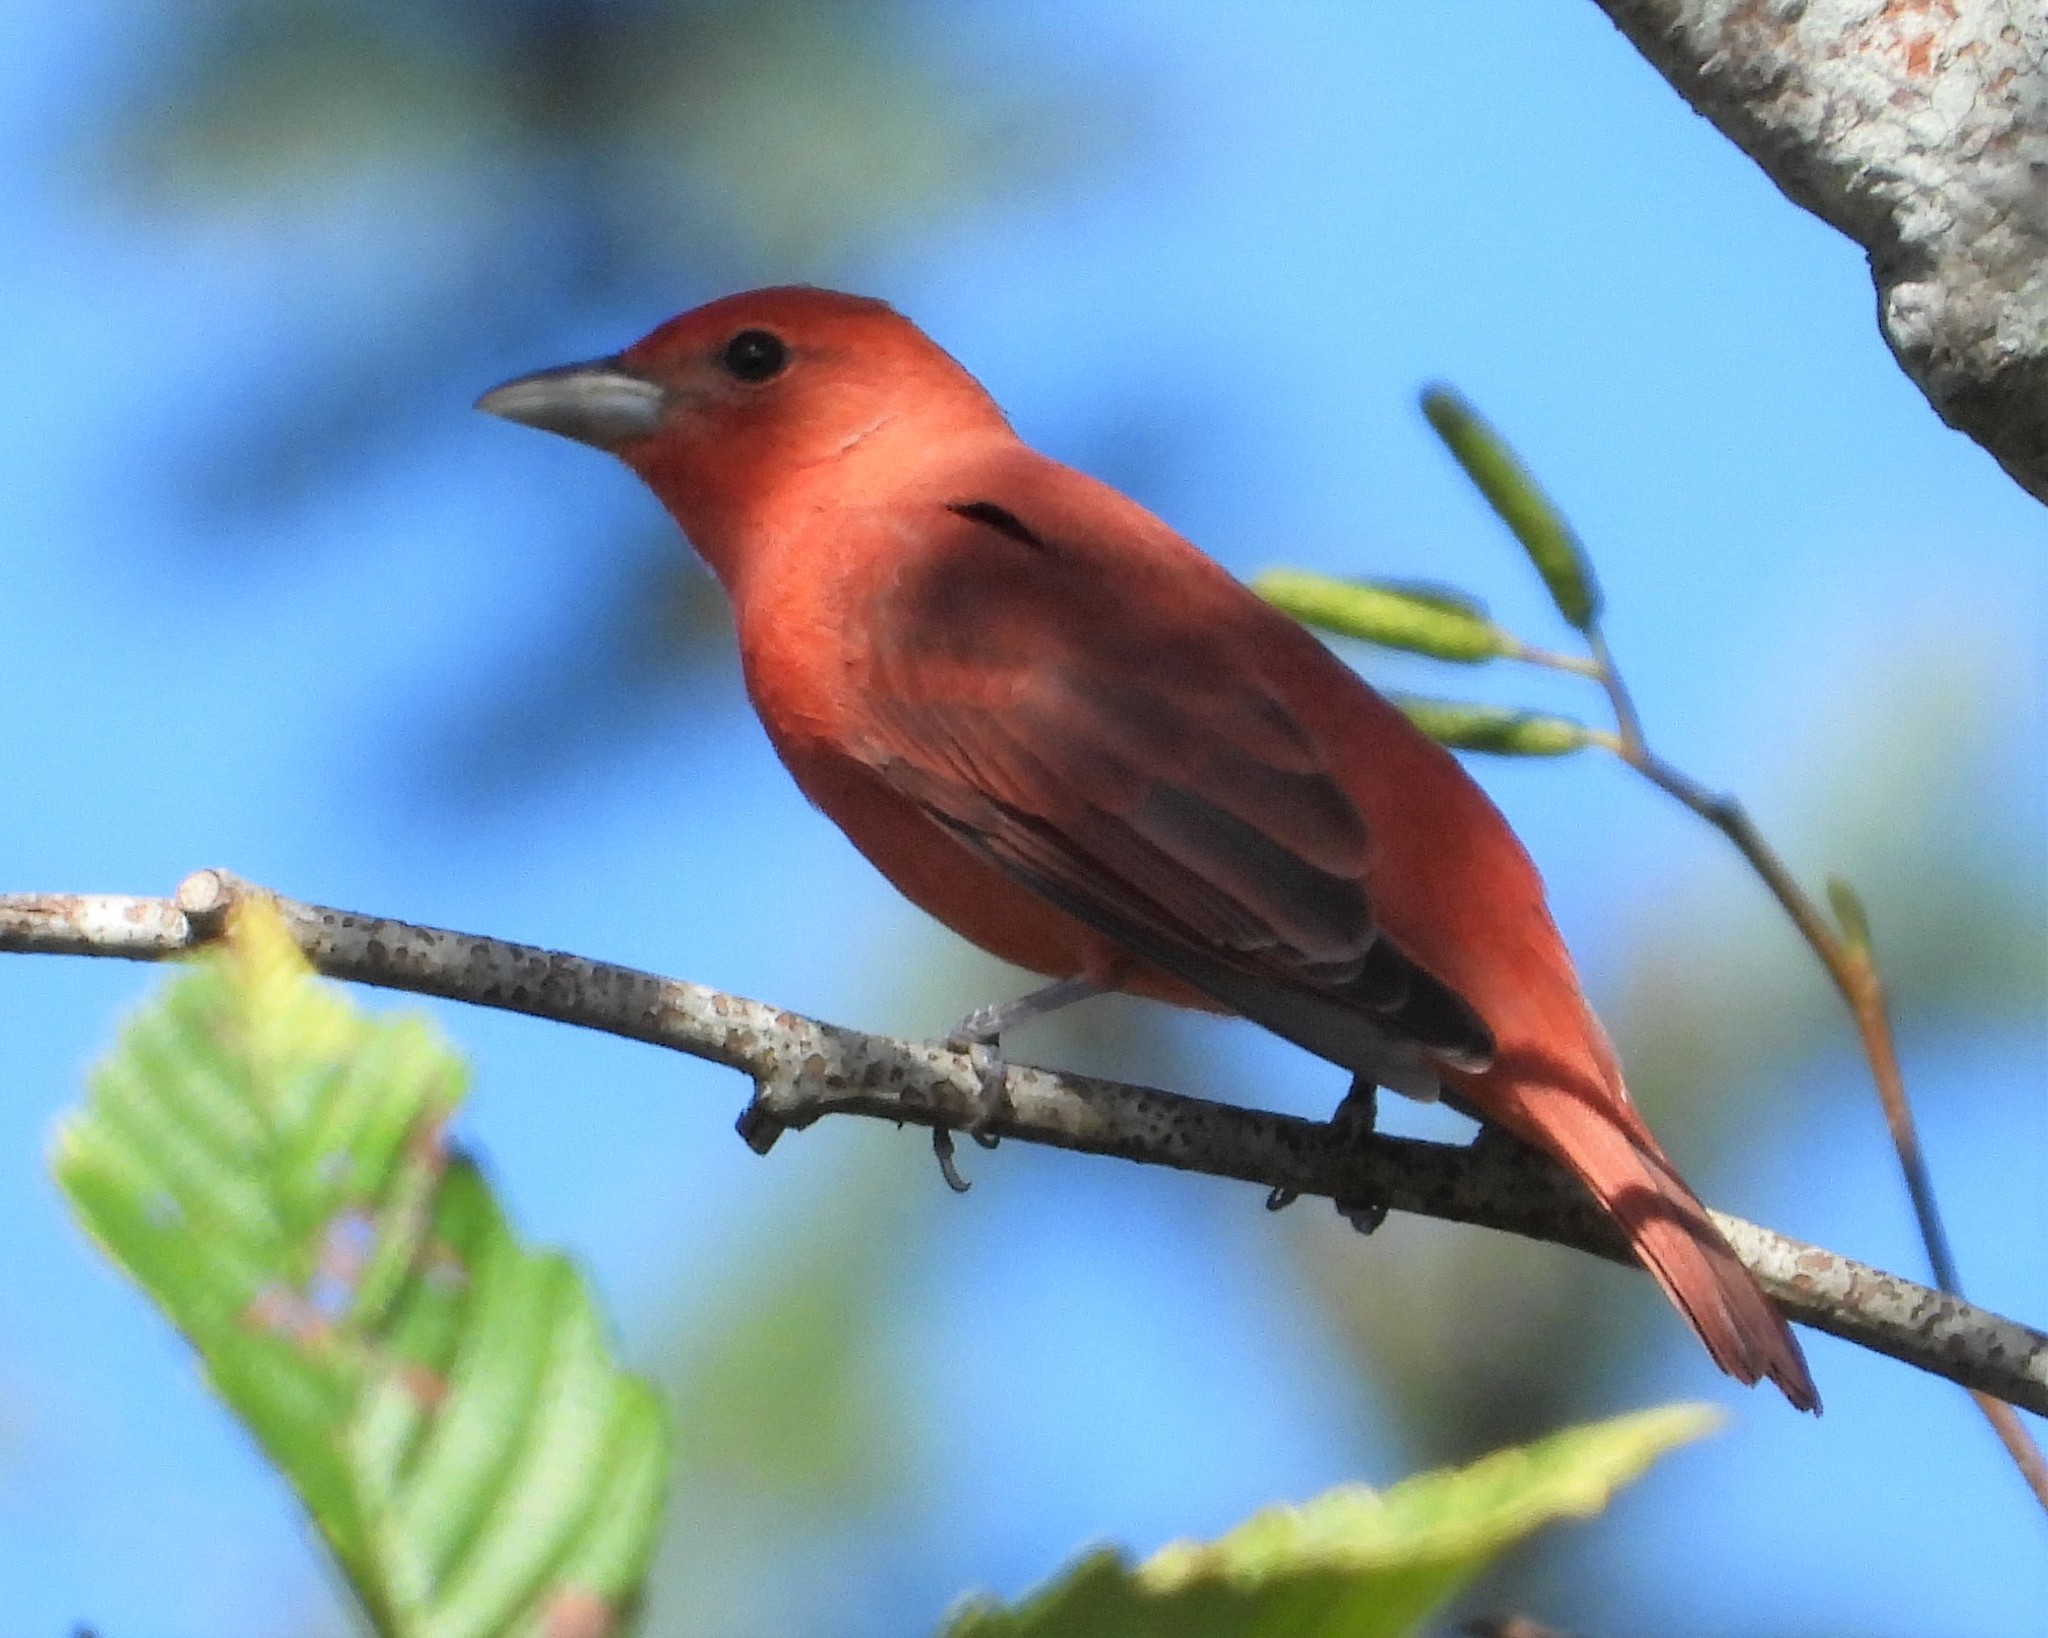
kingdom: Animalia
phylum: Chordata
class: Aves
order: Passeriformes
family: Cardinalidae
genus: Piranga
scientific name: Piranga rubra
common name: Summer tanager
